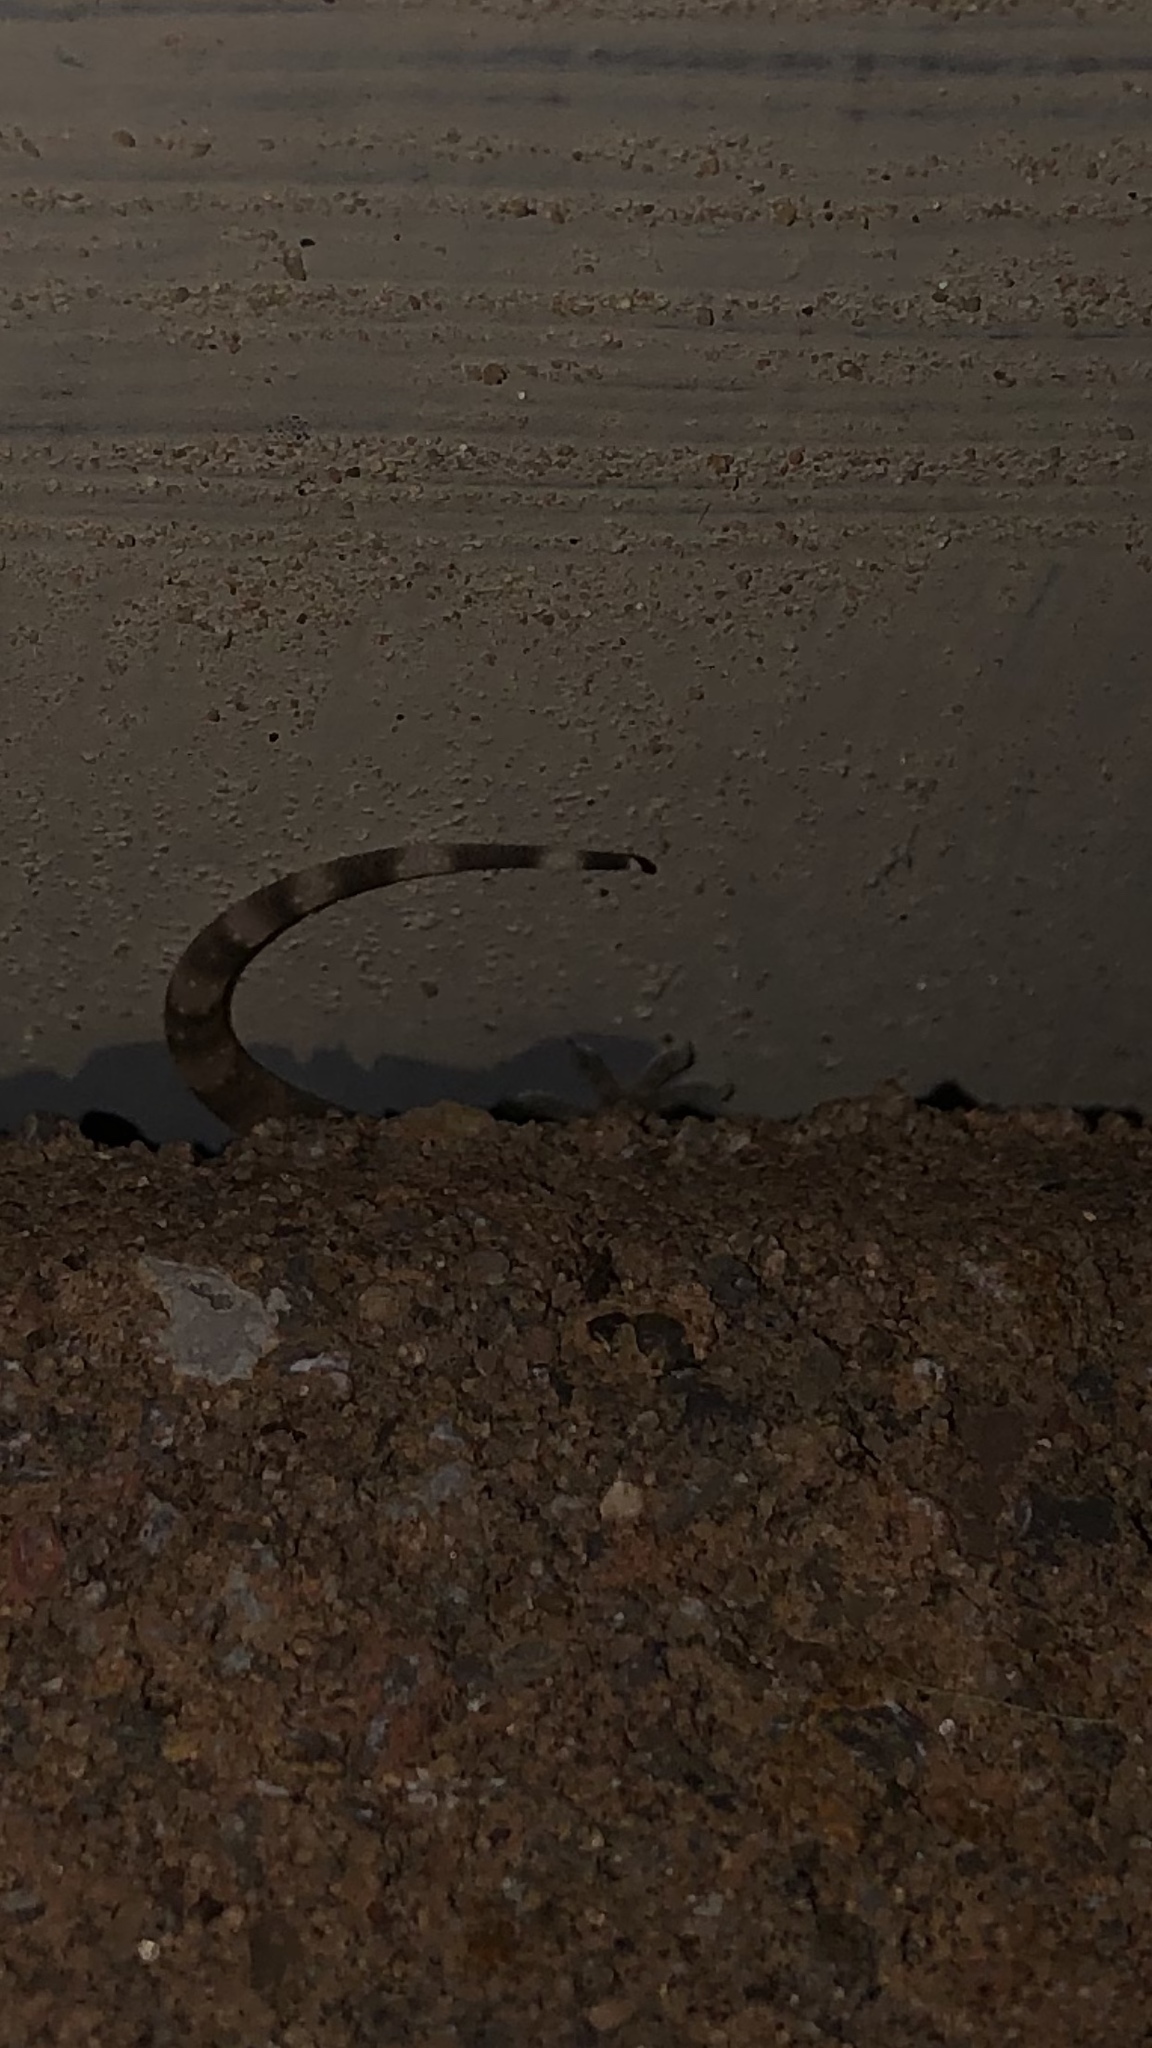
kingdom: Animalia
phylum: Chordata
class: Squamata
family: Gekkonidae
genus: Hemidactylus
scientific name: Hemidactylus turcicus
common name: Turkish gecko
